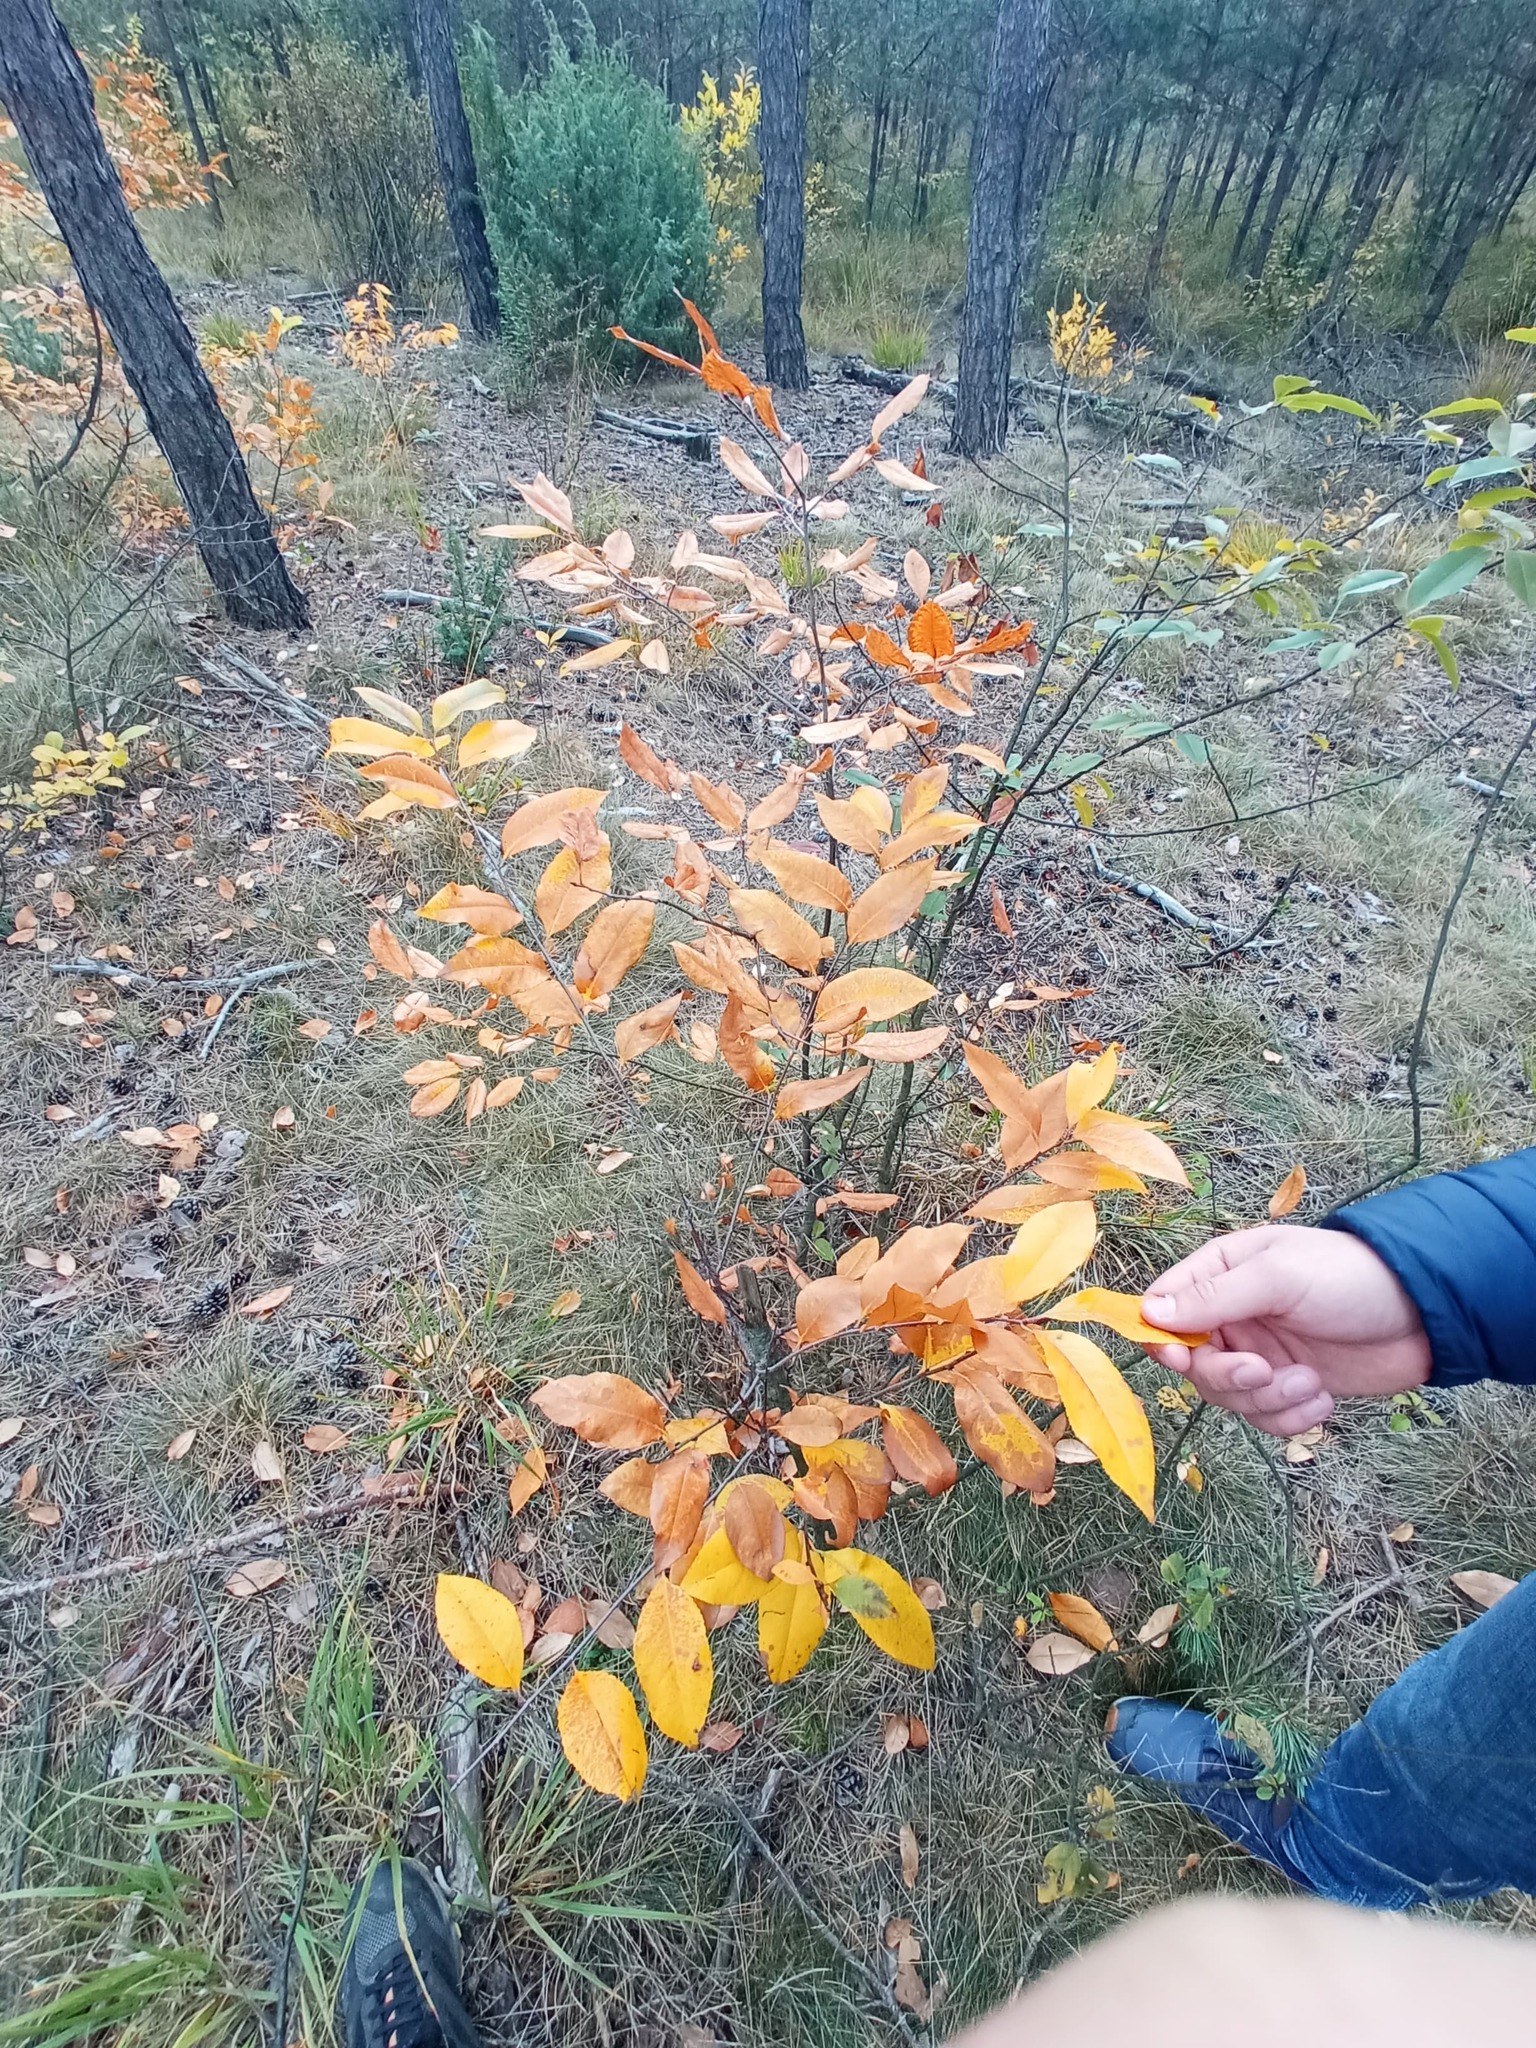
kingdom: Plantae
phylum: Tracheophyta
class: Magnoliopsida
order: Rosales
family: Rosaceae
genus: Prunus
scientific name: Prunus serotina
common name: Black cherry
